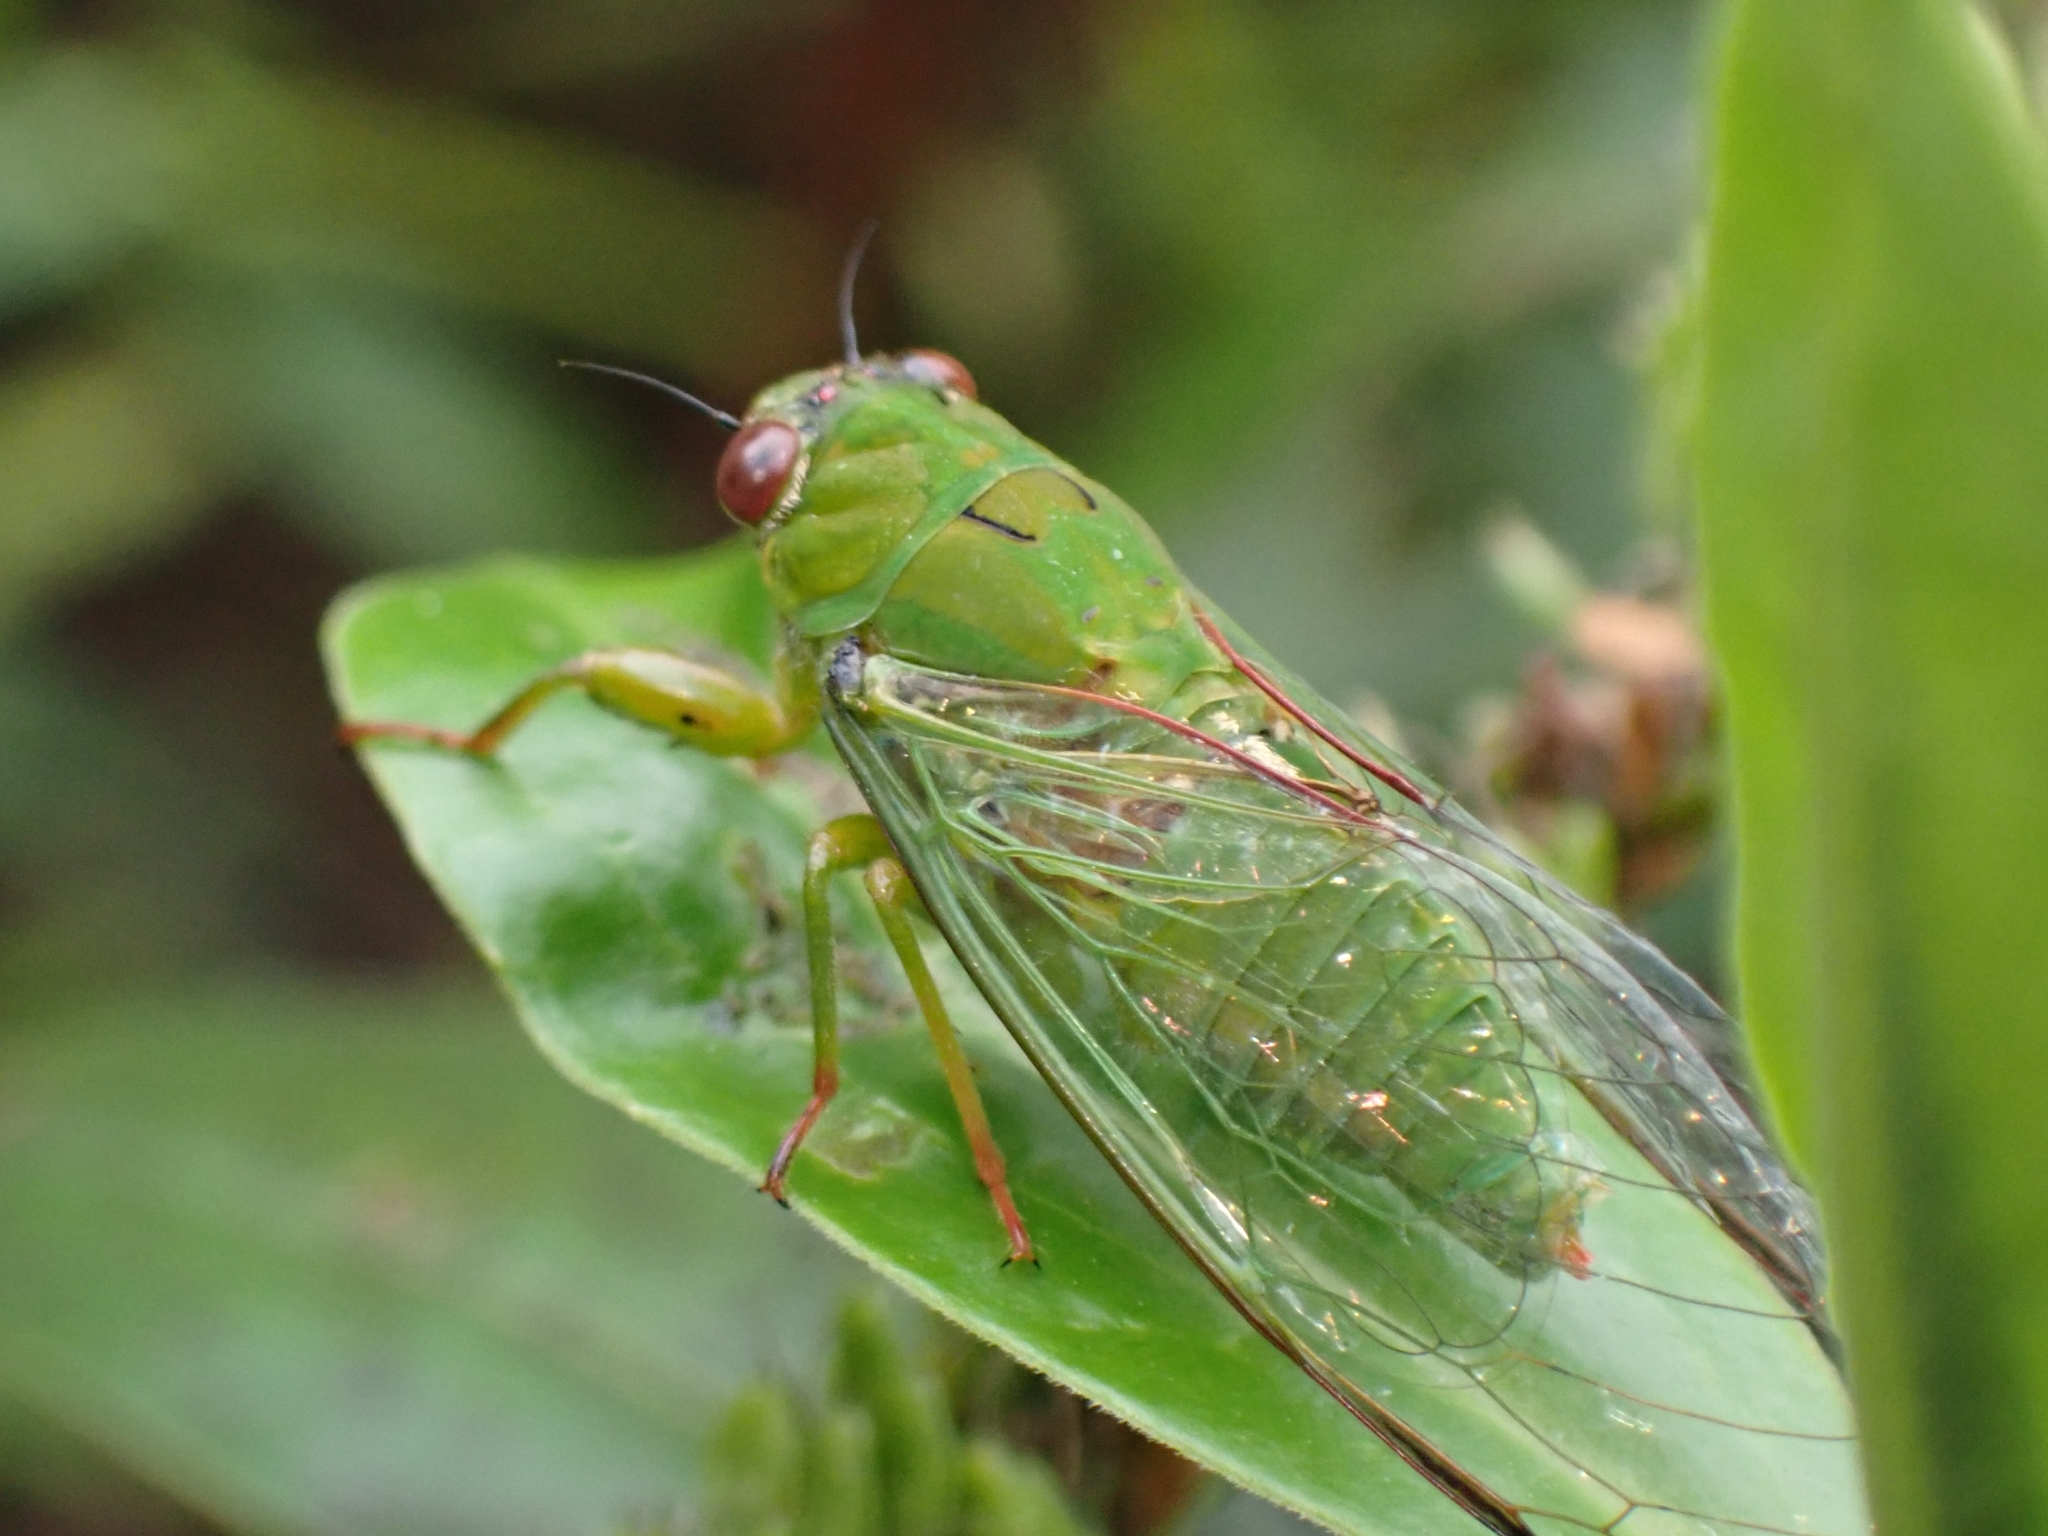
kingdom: Animalia
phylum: Arthropoda
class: Insecta
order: Hemiptera
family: Cicadidae
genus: Kikihia
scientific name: Kikihia ochrina
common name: April green cicada
